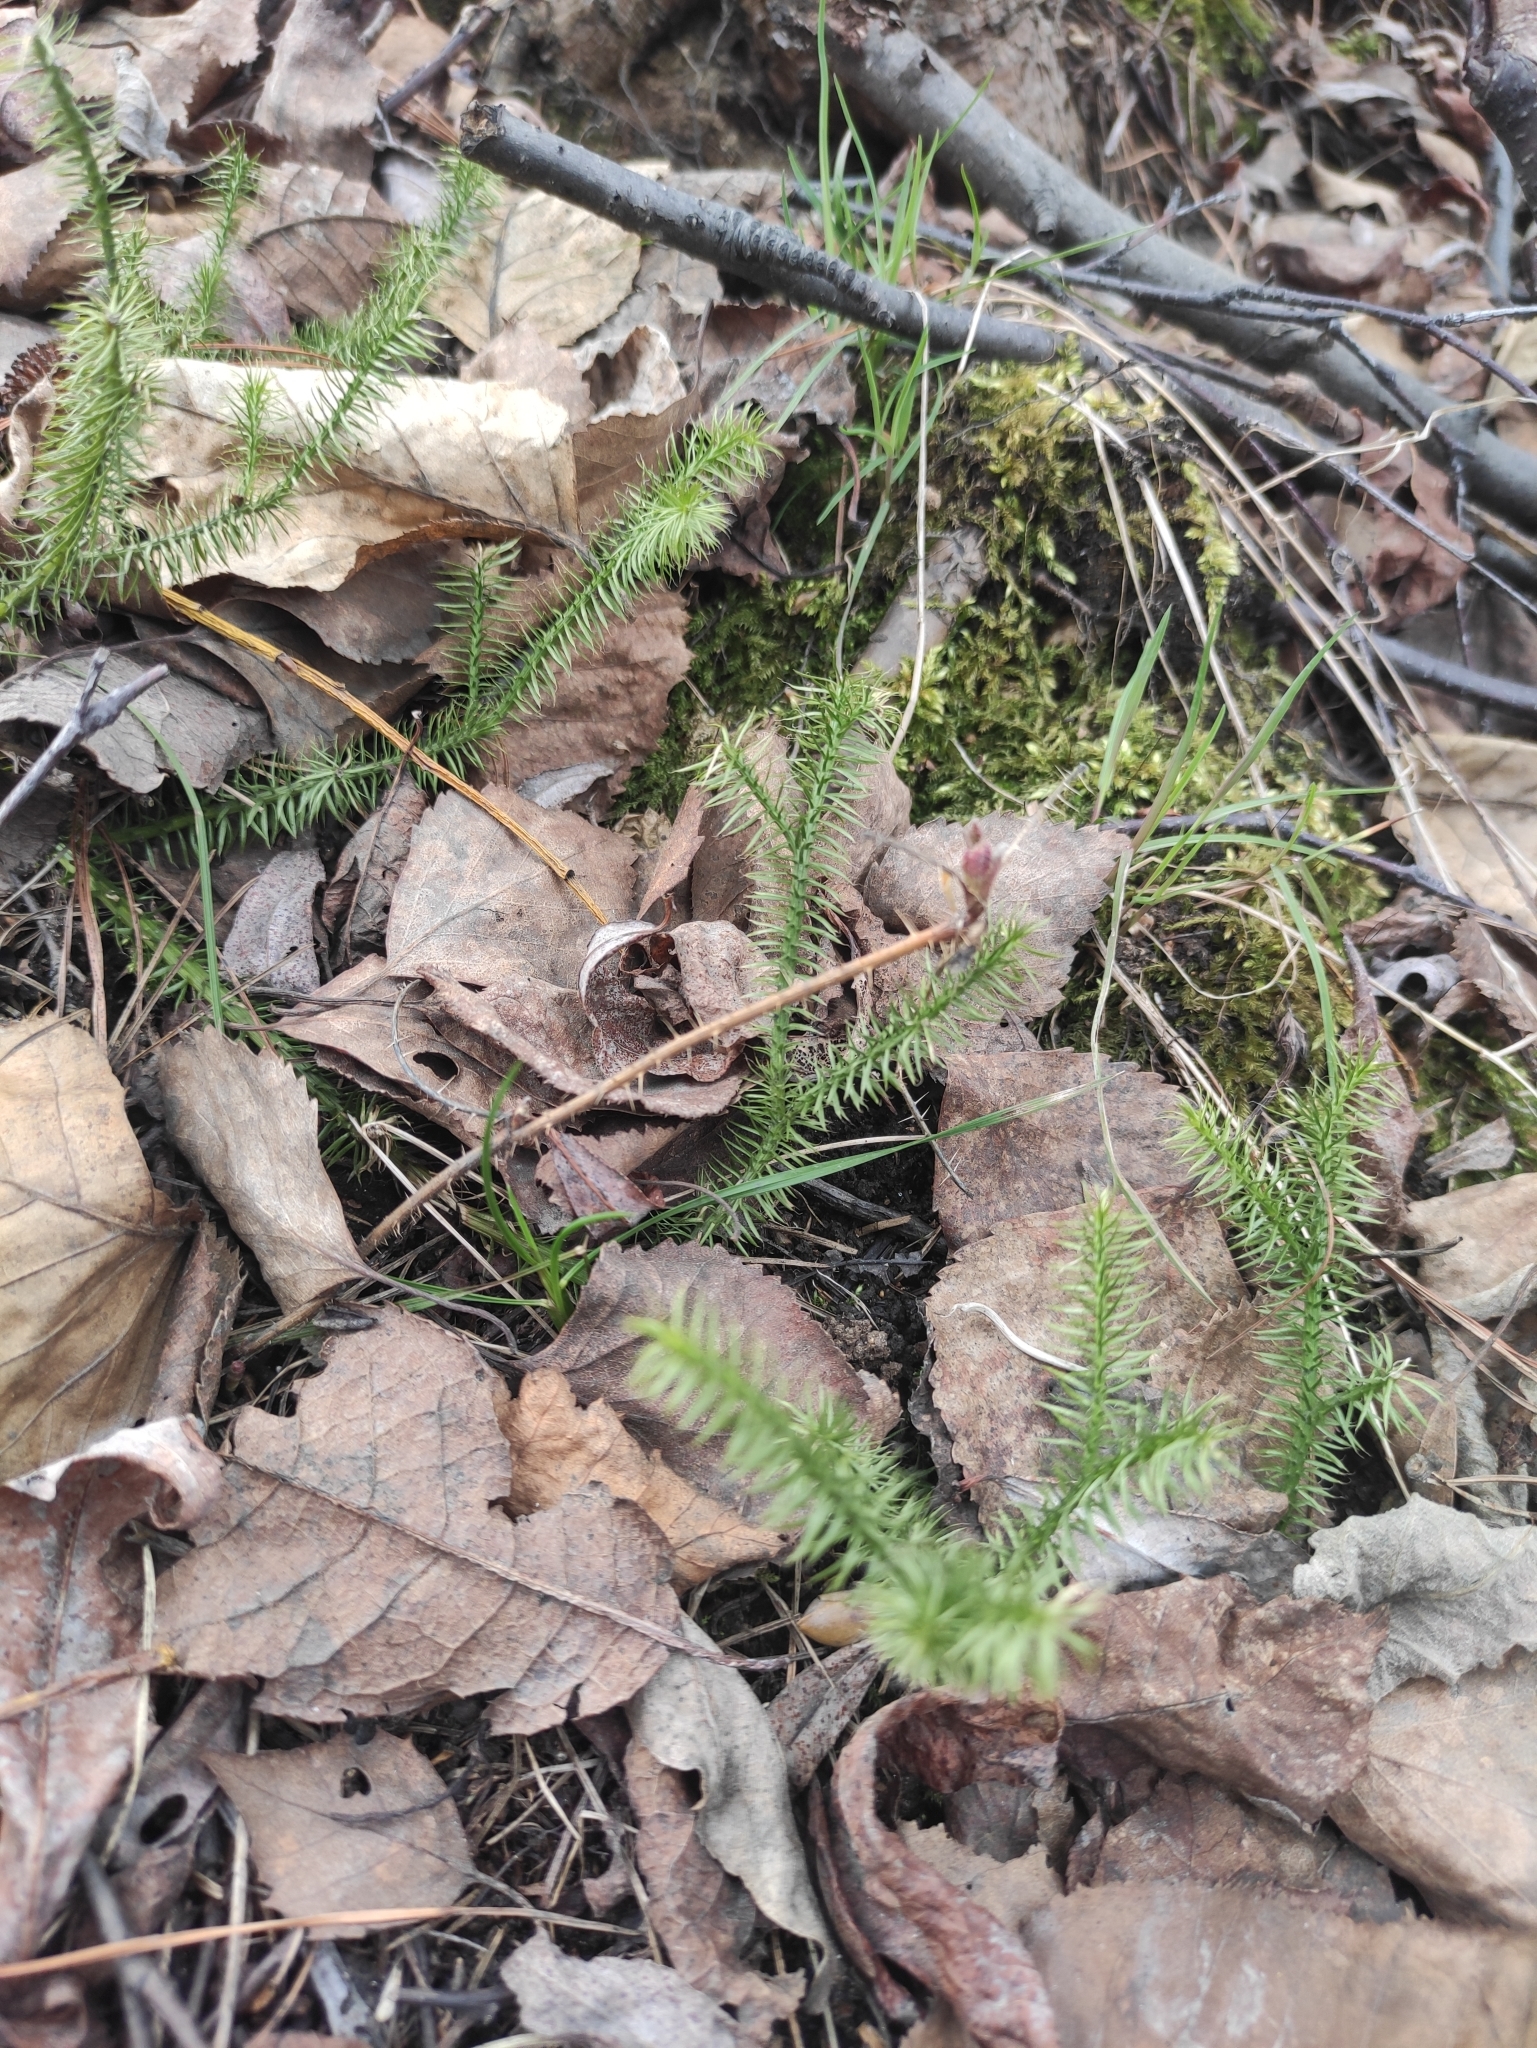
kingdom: Plantae
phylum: Tracheophyta
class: Lycopodiopsida
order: Lycopodiales
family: Lycopodiaceae
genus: Spinulum
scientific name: Spinulum annotinum
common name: Interrupted club-moss
